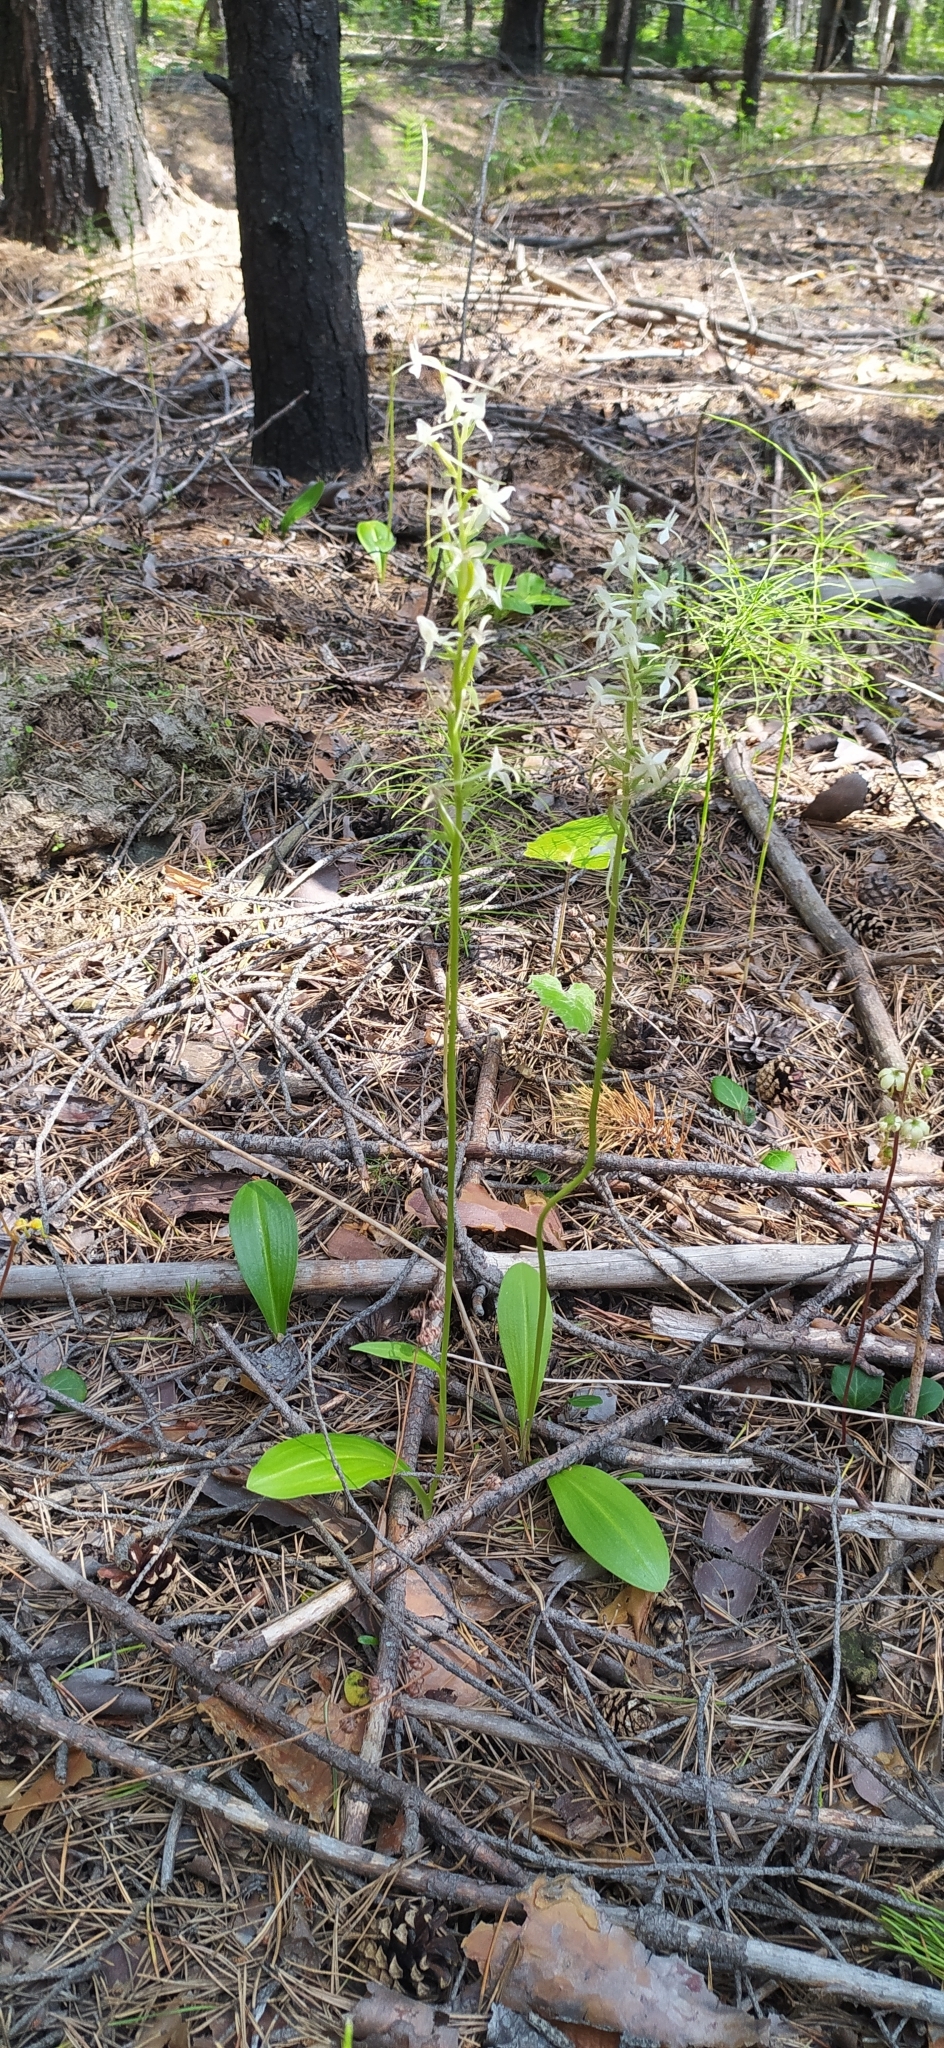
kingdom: Plantae
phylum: Tracheophyta
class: Liliopsida
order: Asparagales
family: Orchidaceae
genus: Platanthera
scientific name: Platanthera bifolia
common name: Lesser butterfly-orchid
